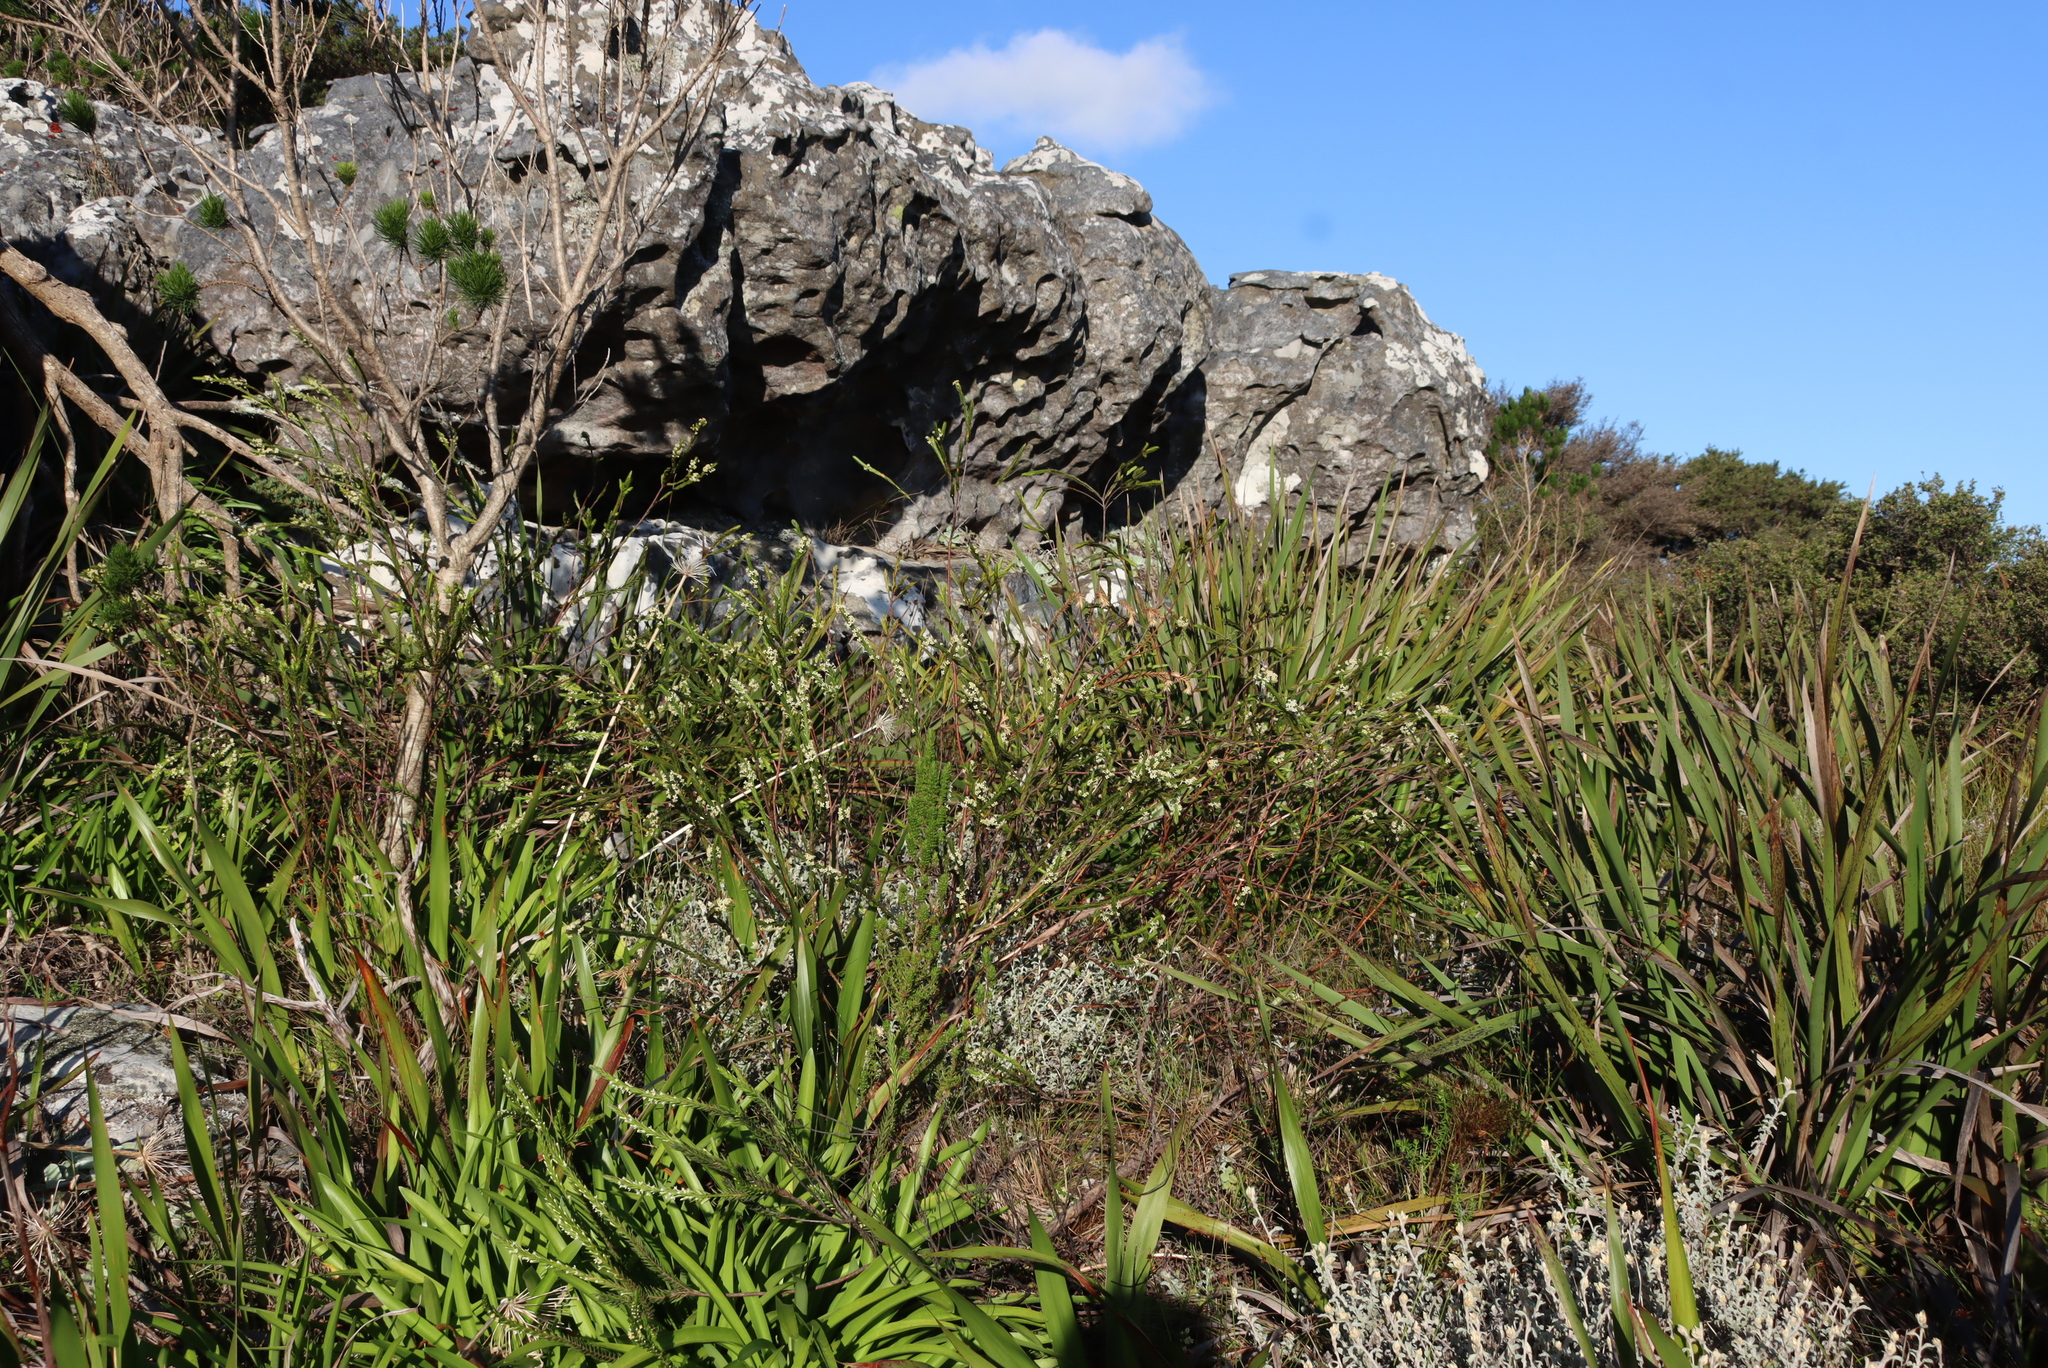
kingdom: Plantae
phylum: Tracheophyta
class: Magnoliopsida
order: Malvales
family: Thymelaeaceae
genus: Struthiola
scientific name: Struthiola ciliata
